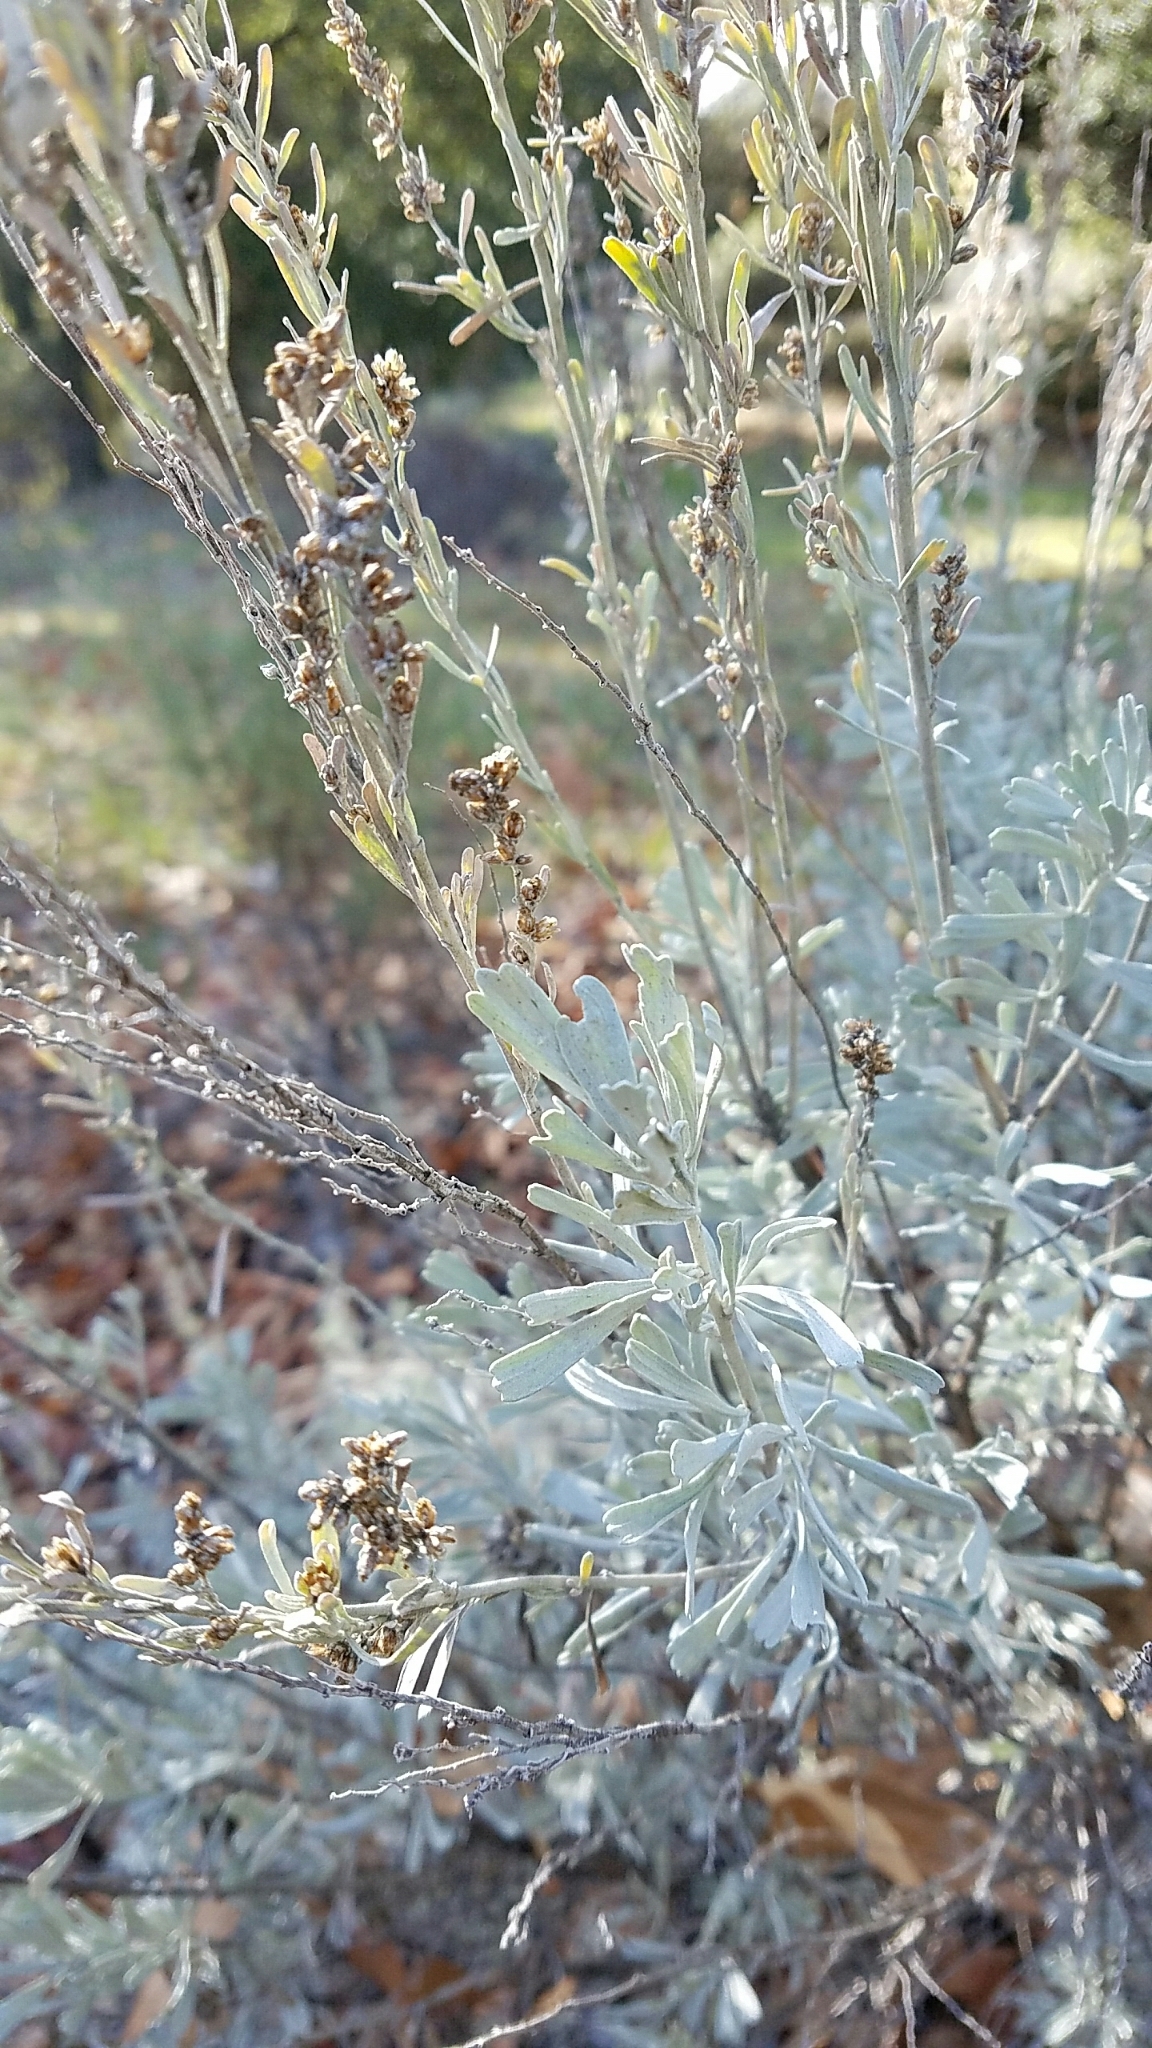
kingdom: Plantae
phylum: Tracheophyta
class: Magnoliopsida
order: Asterales
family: Asteraceae
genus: Artemisia
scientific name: Artemisia tridentata
